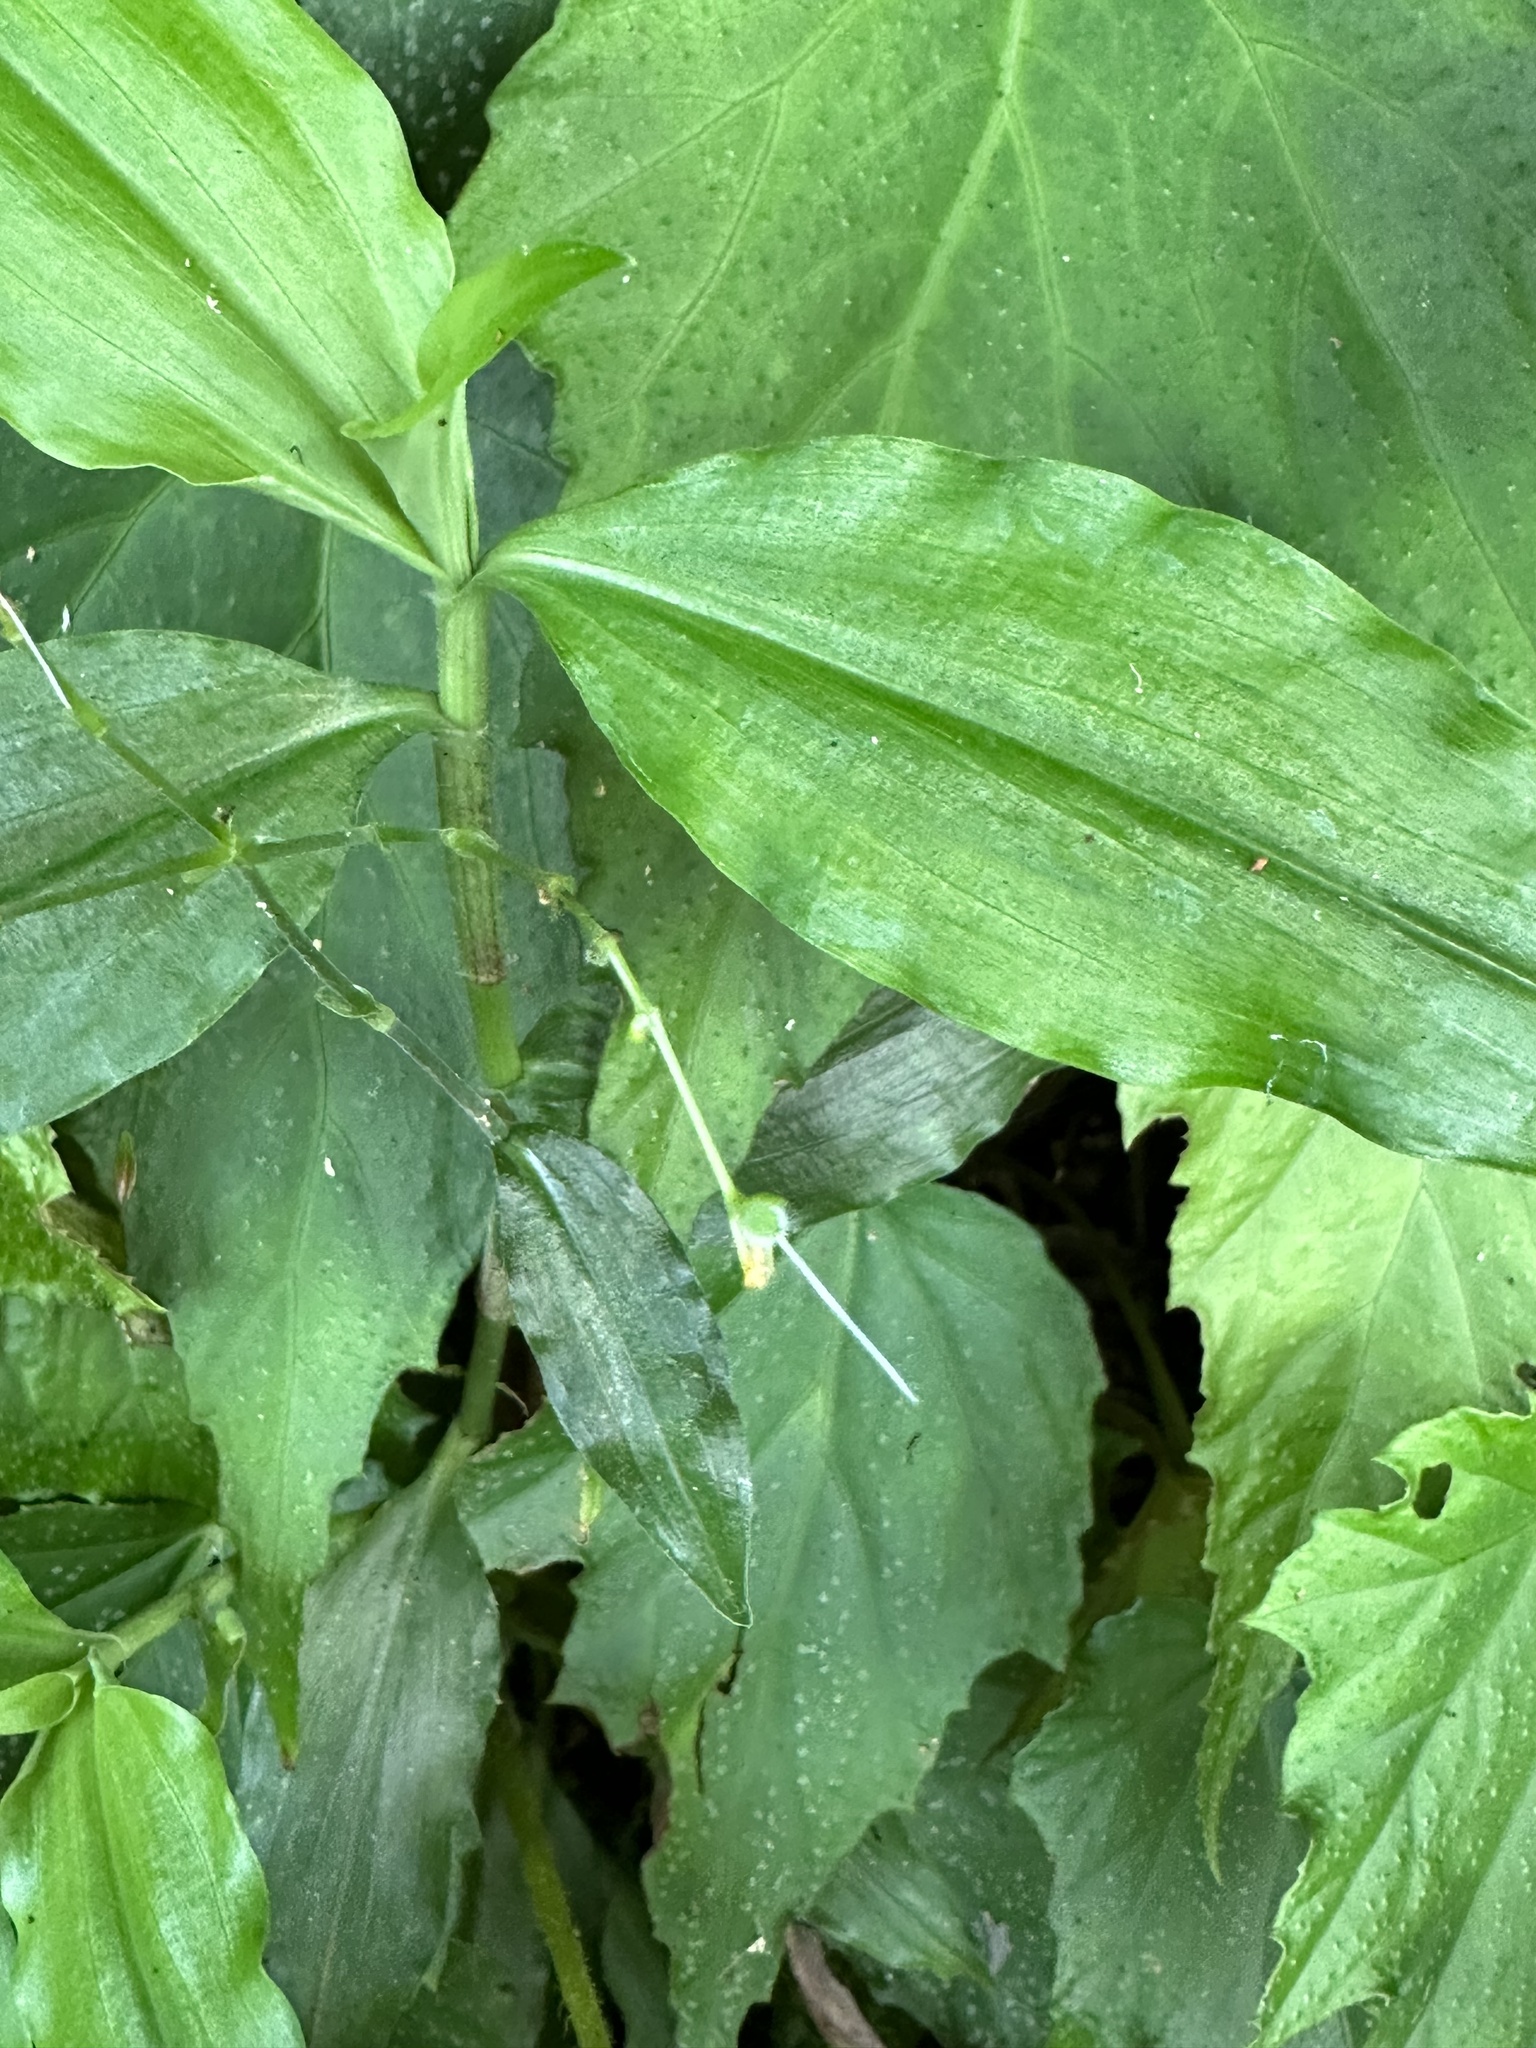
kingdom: Plantae
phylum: Tracheophyta
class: Liliopsida
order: Commelinales
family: Commelinaceae
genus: Rhopalephora
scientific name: Rhopalephora scaberrima
